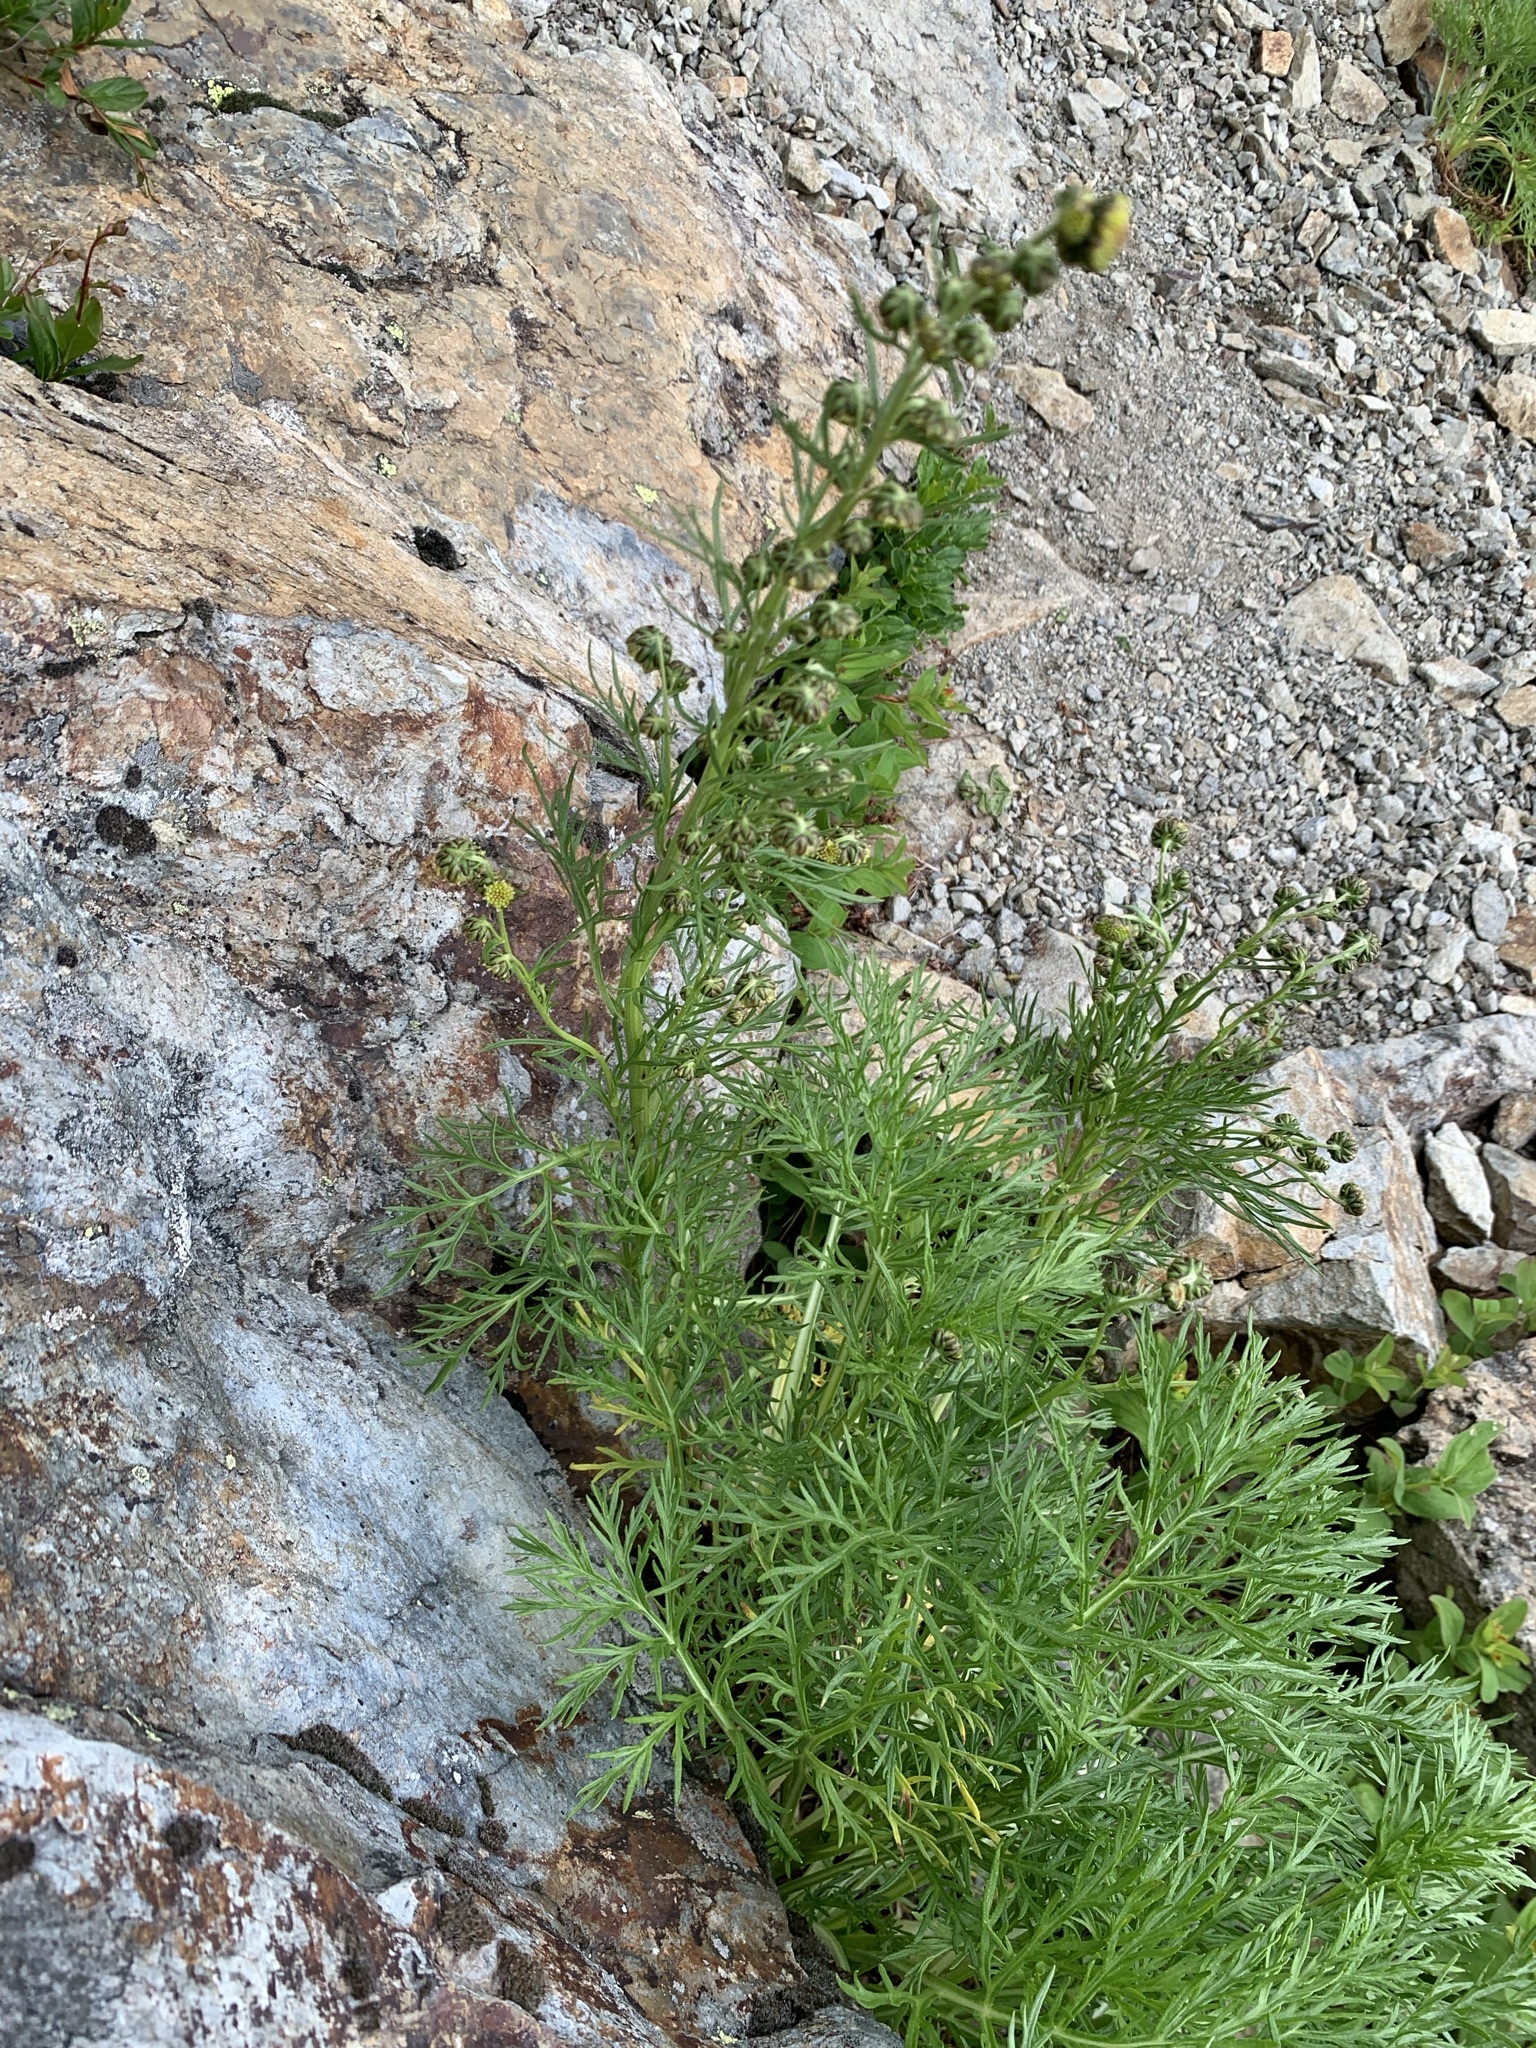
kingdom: Plantae
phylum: Tracheophyta
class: Magnoliopsida
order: Asterales
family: Asteraceae
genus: Artemisia
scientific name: Artemisia sinanensis
